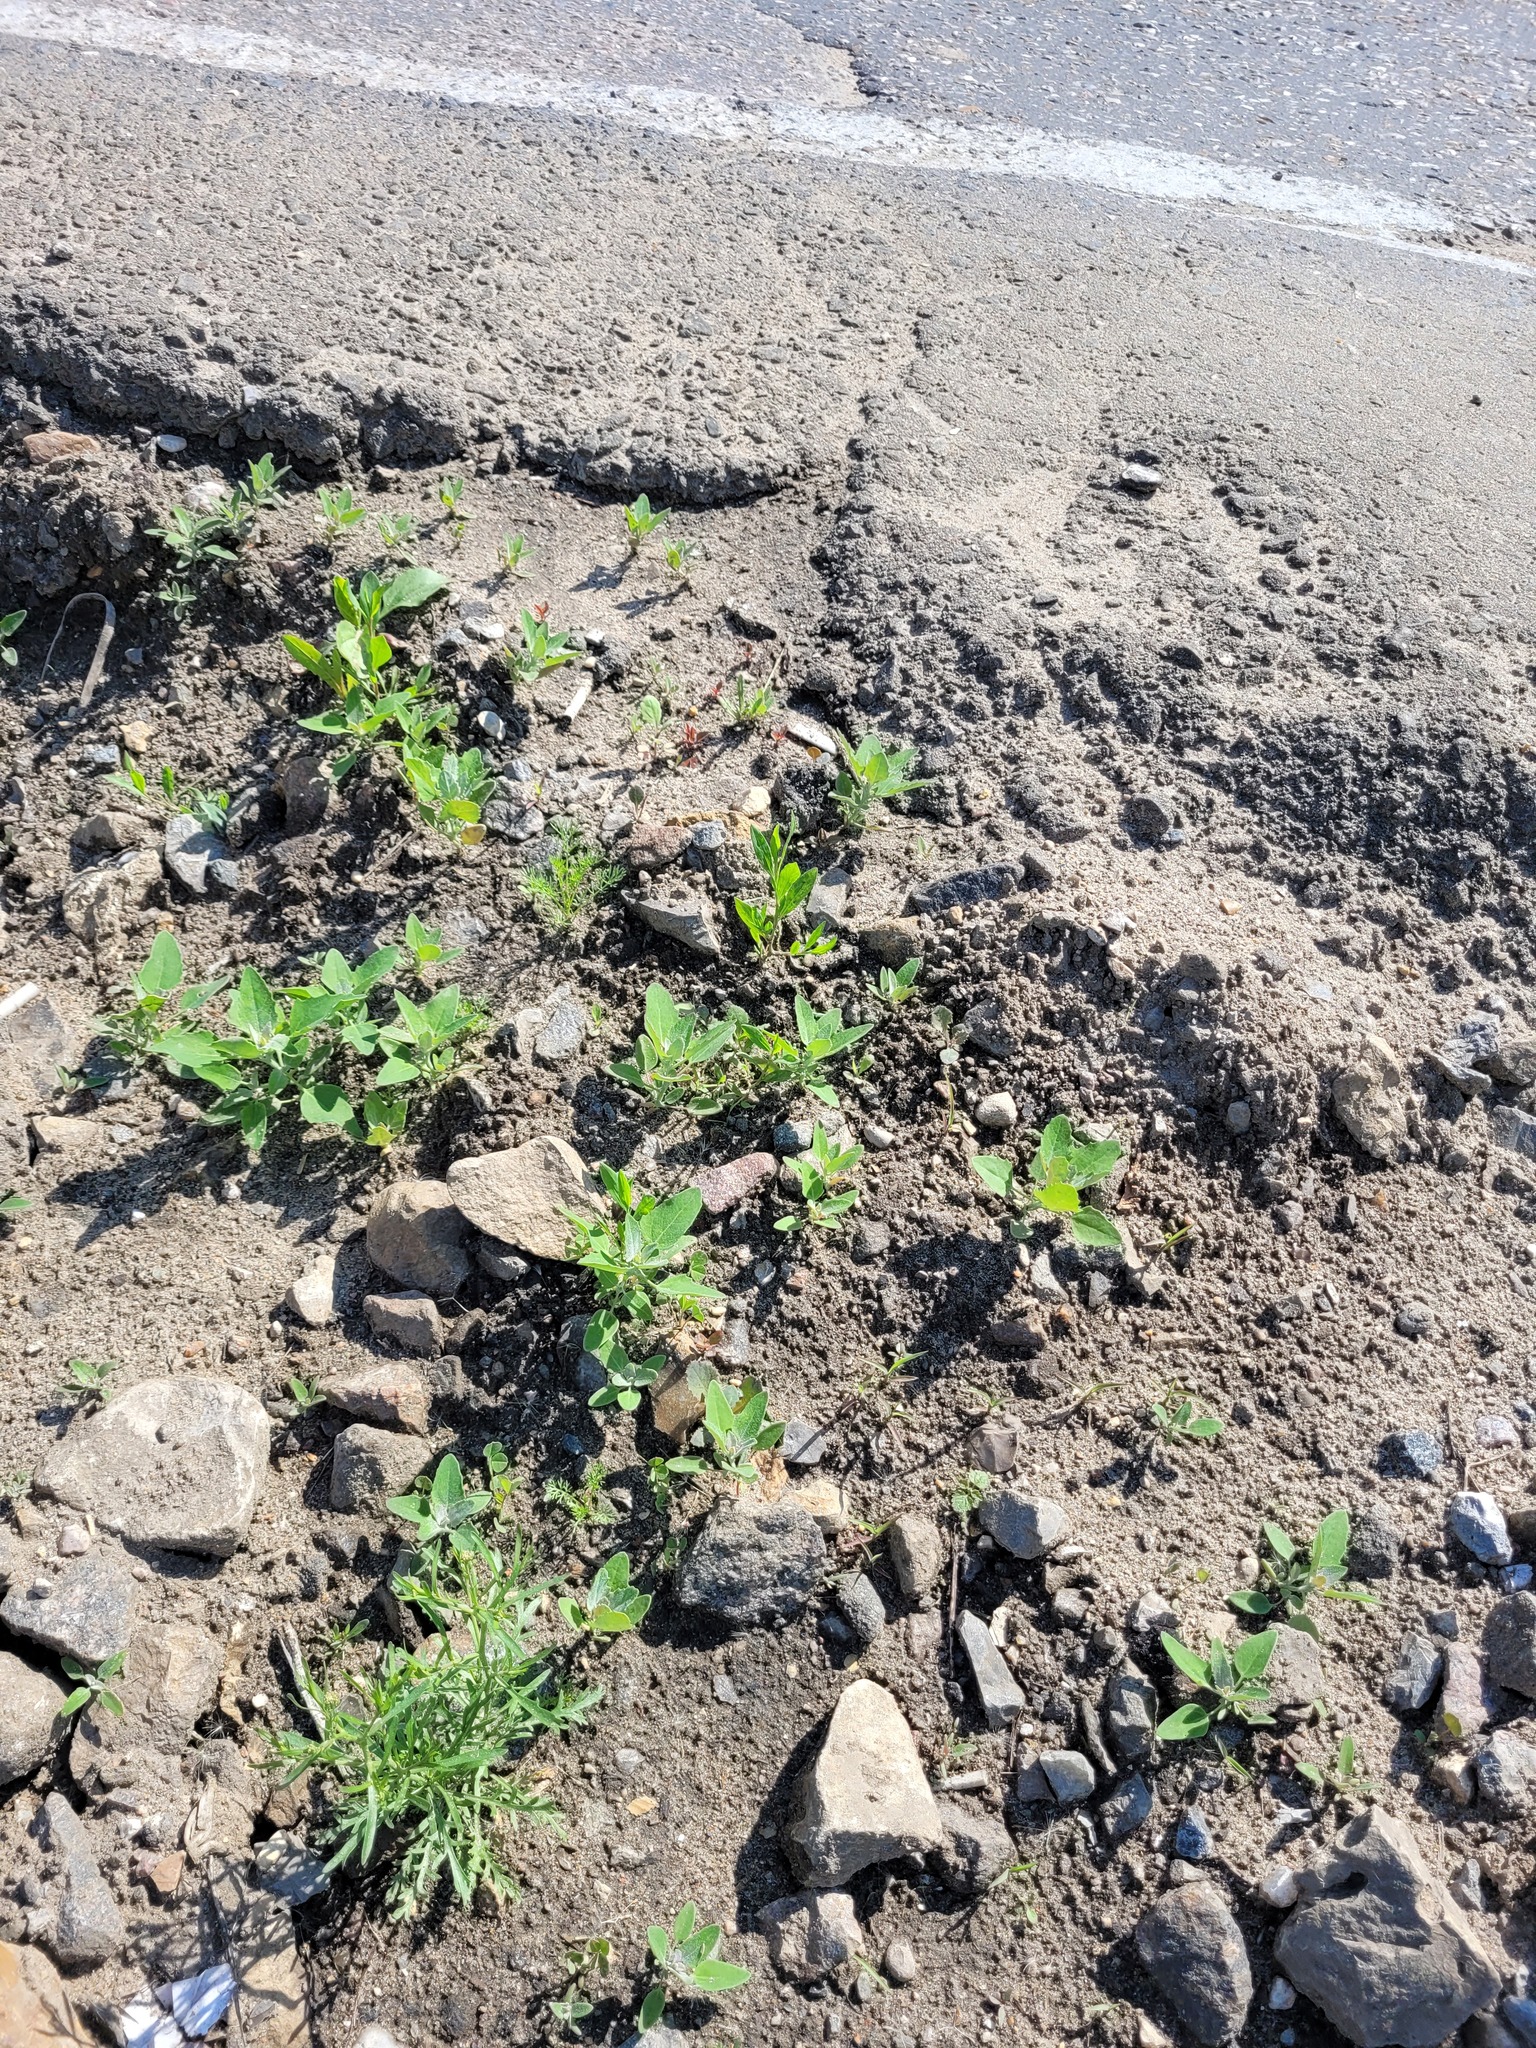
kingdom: Plantae
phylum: Tracheophyta
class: Magnoliopsida
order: Caryophyllales
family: Amaranthaceae
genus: Chenopodium
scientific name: Chenopodium album
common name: Fat-hen
